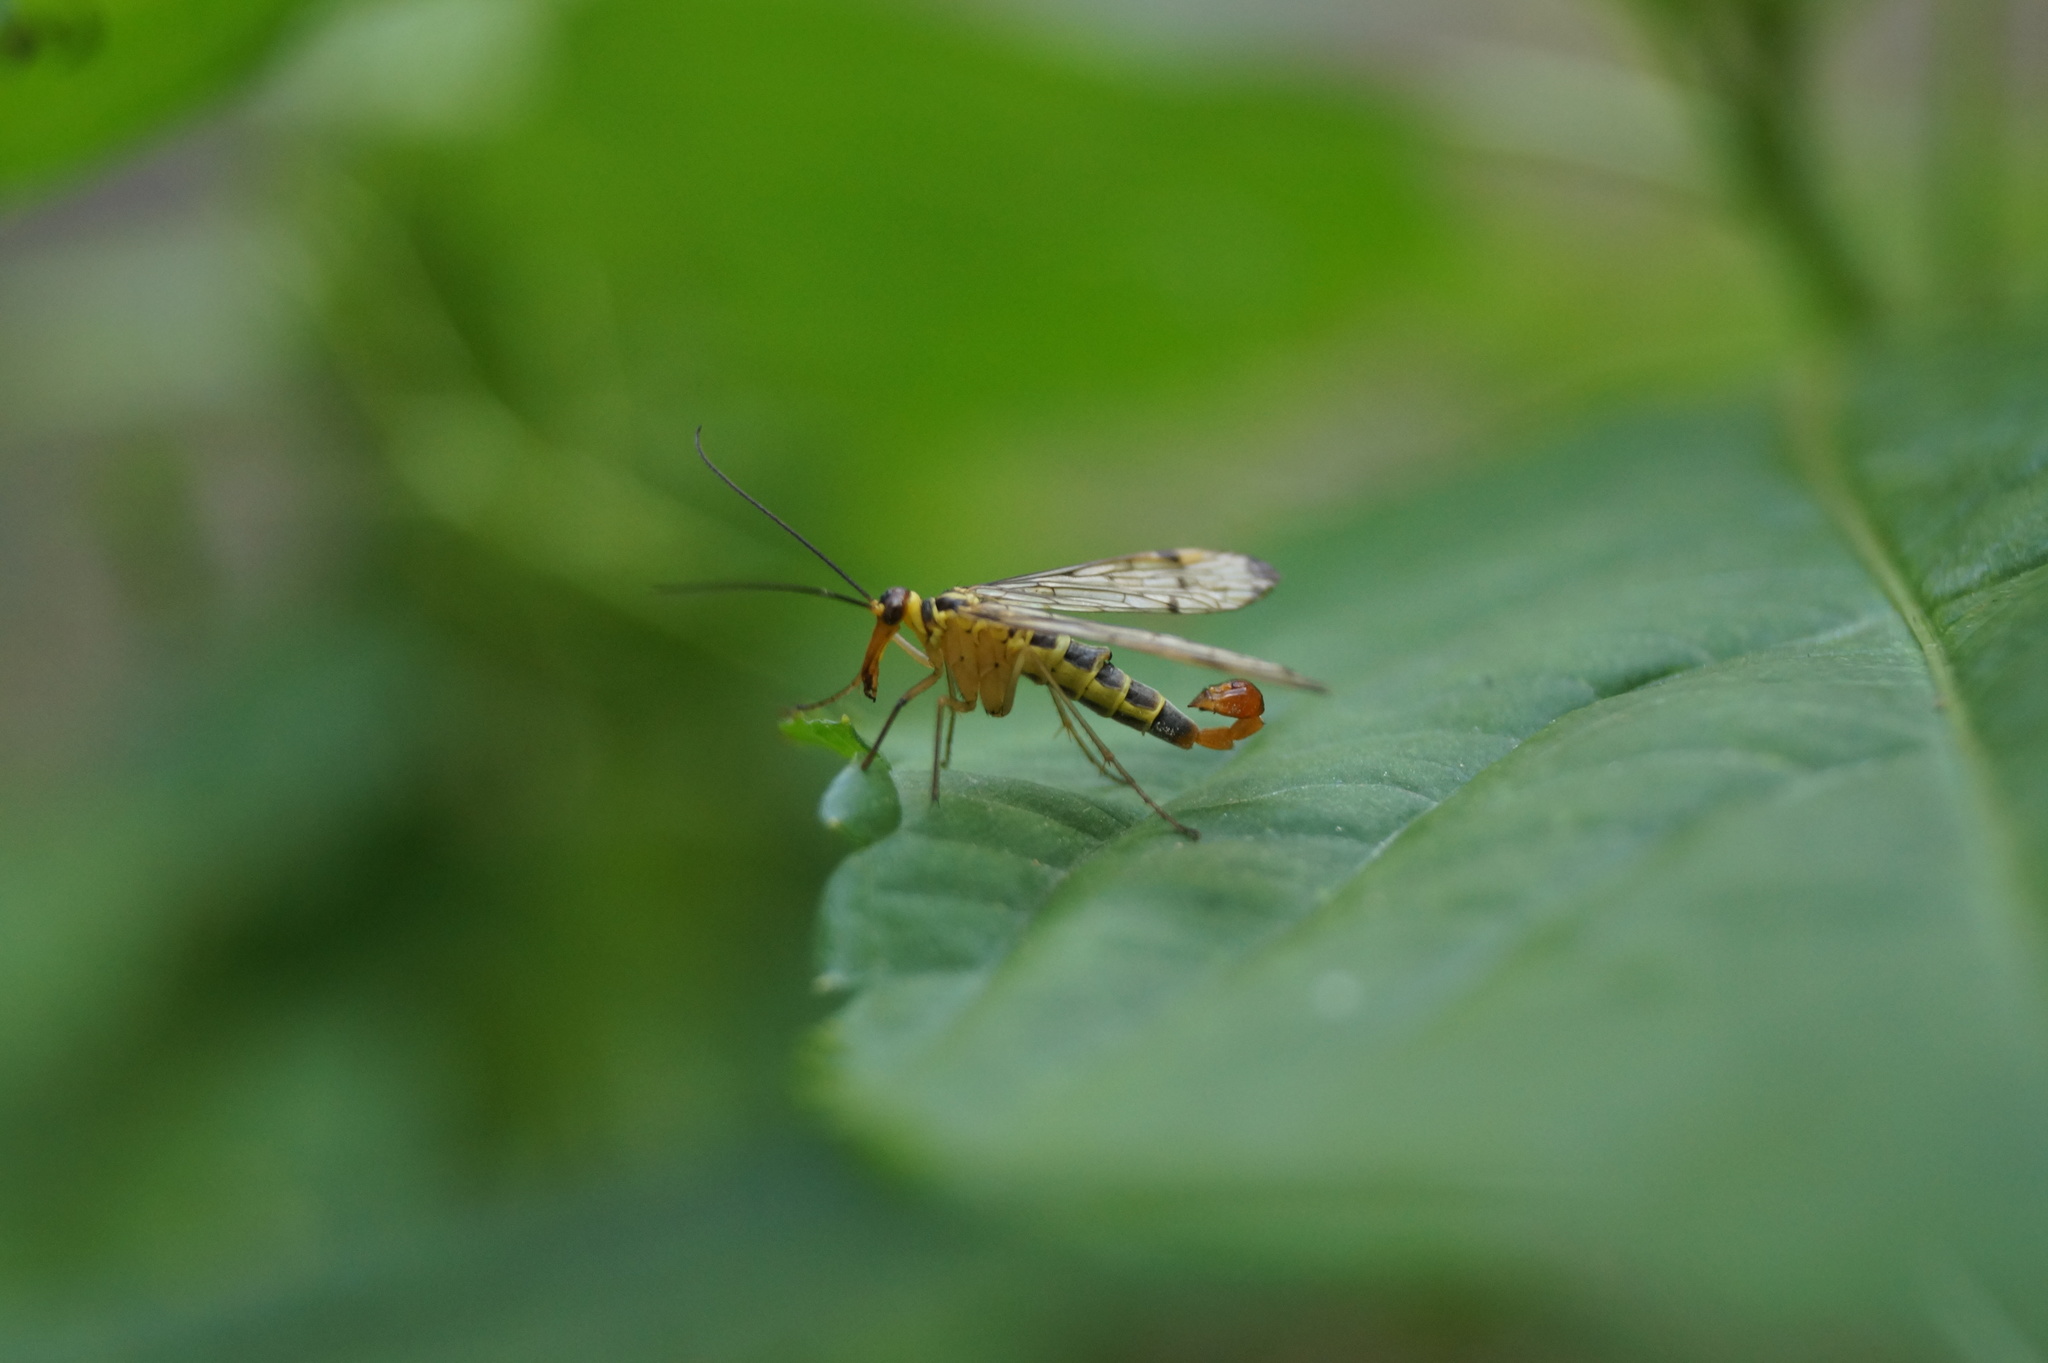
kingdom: Animalia
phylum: Arthropoda
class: Insecta
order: Mecoptera
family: Panorpidae
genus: Panorpa
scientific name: Panorpa germanica
